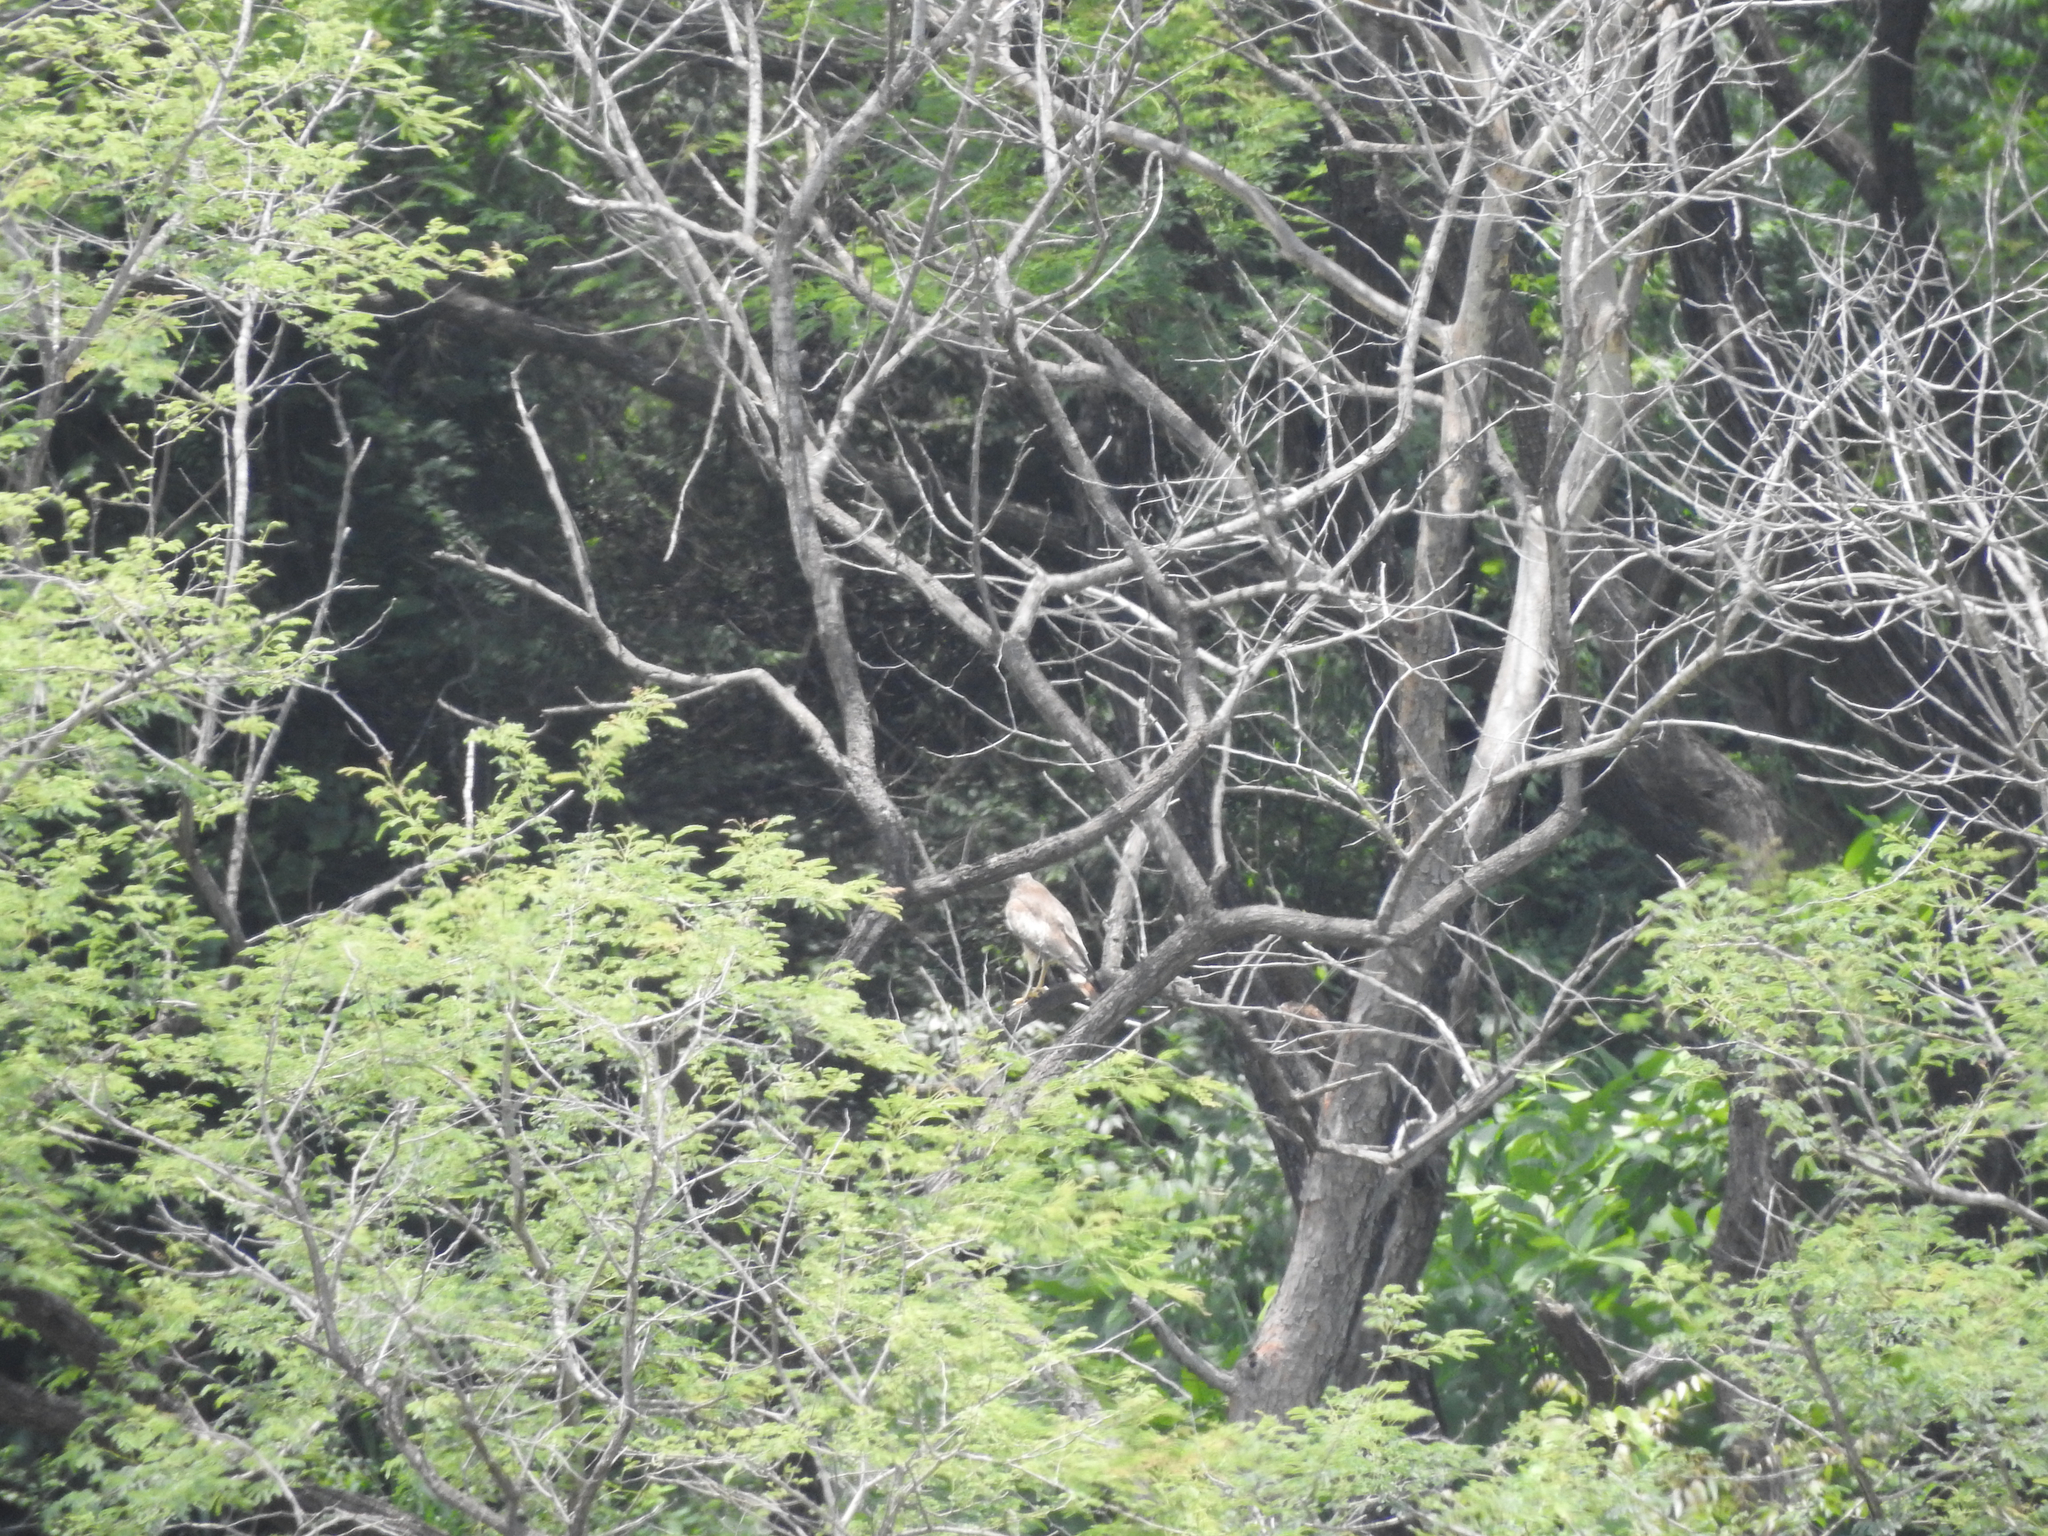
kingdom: Animalia
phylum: Chordata
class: Aves
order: Accipitriformes
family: Accipitridae
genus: Butastur
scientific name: Butastur teesa
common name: White-eyed buzzard
